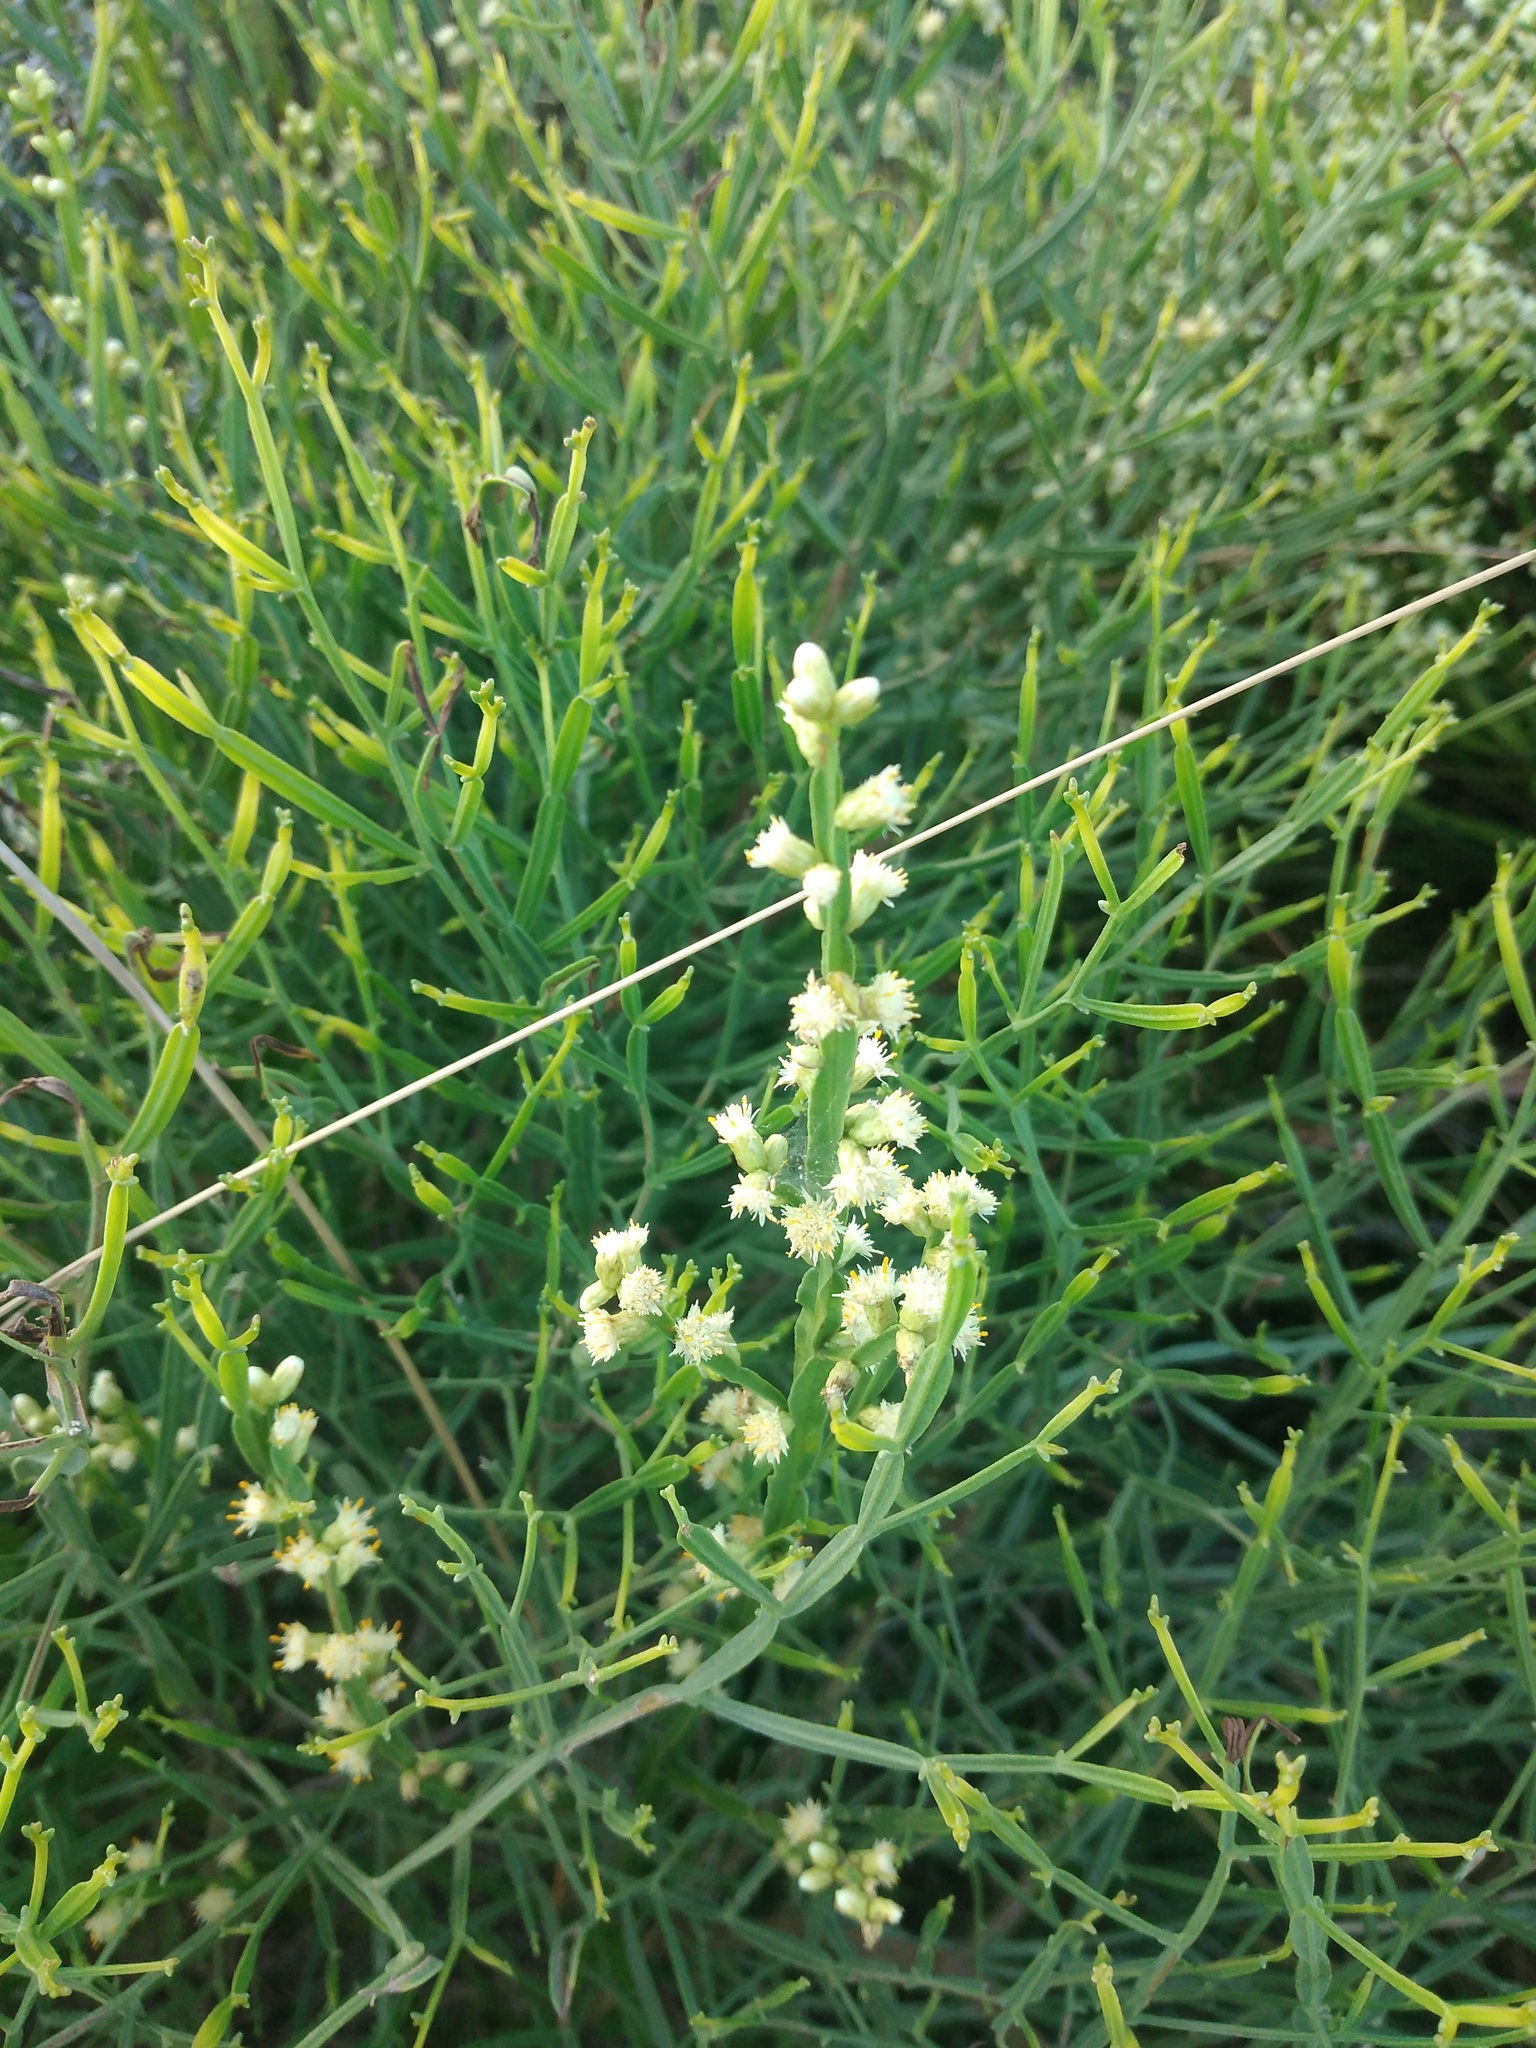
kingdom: Plantae
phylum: Tracheophyta
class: Magnoliopsida
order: Asterales
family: Asteraceae
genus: Baccharis
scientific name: Baccharis articulata
